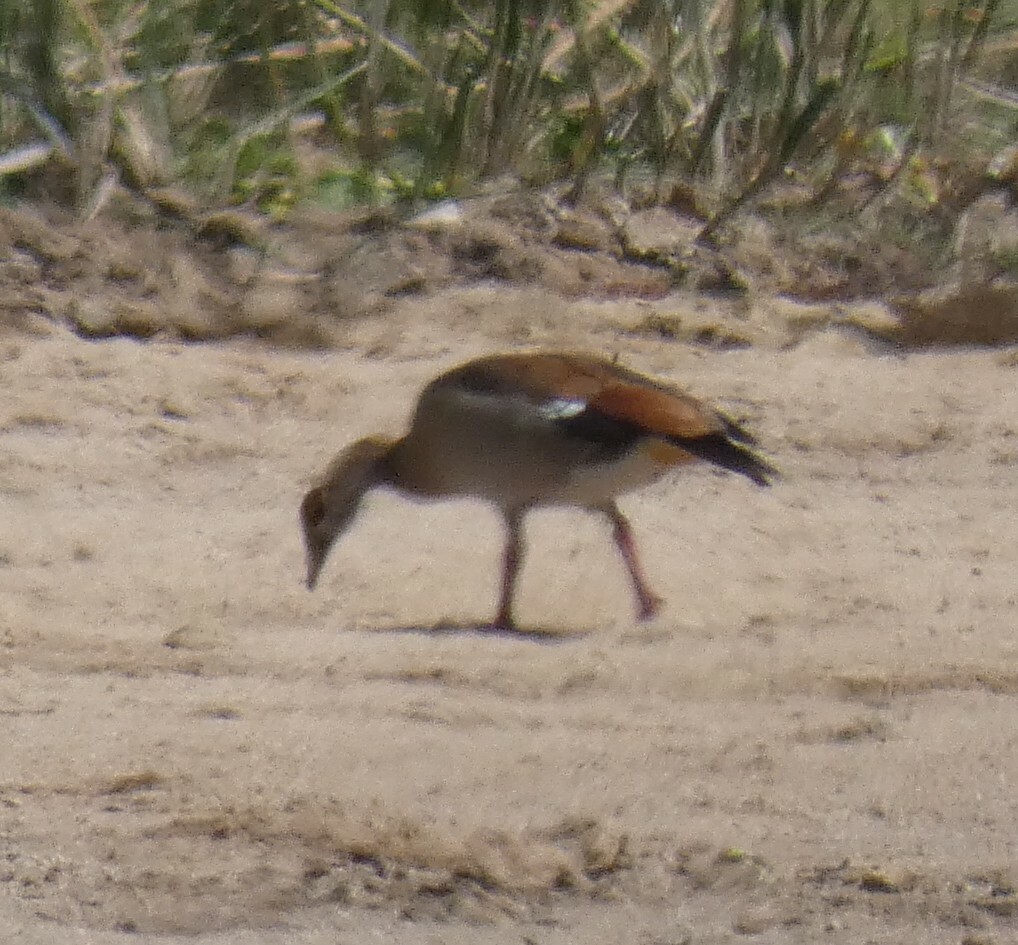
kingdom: Animalia
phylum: Chordata
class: Aves
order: Anseriformes
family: Anatidae
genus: Alopochen
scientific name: Alopochen aegyptiaca
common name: Egyptian goose
